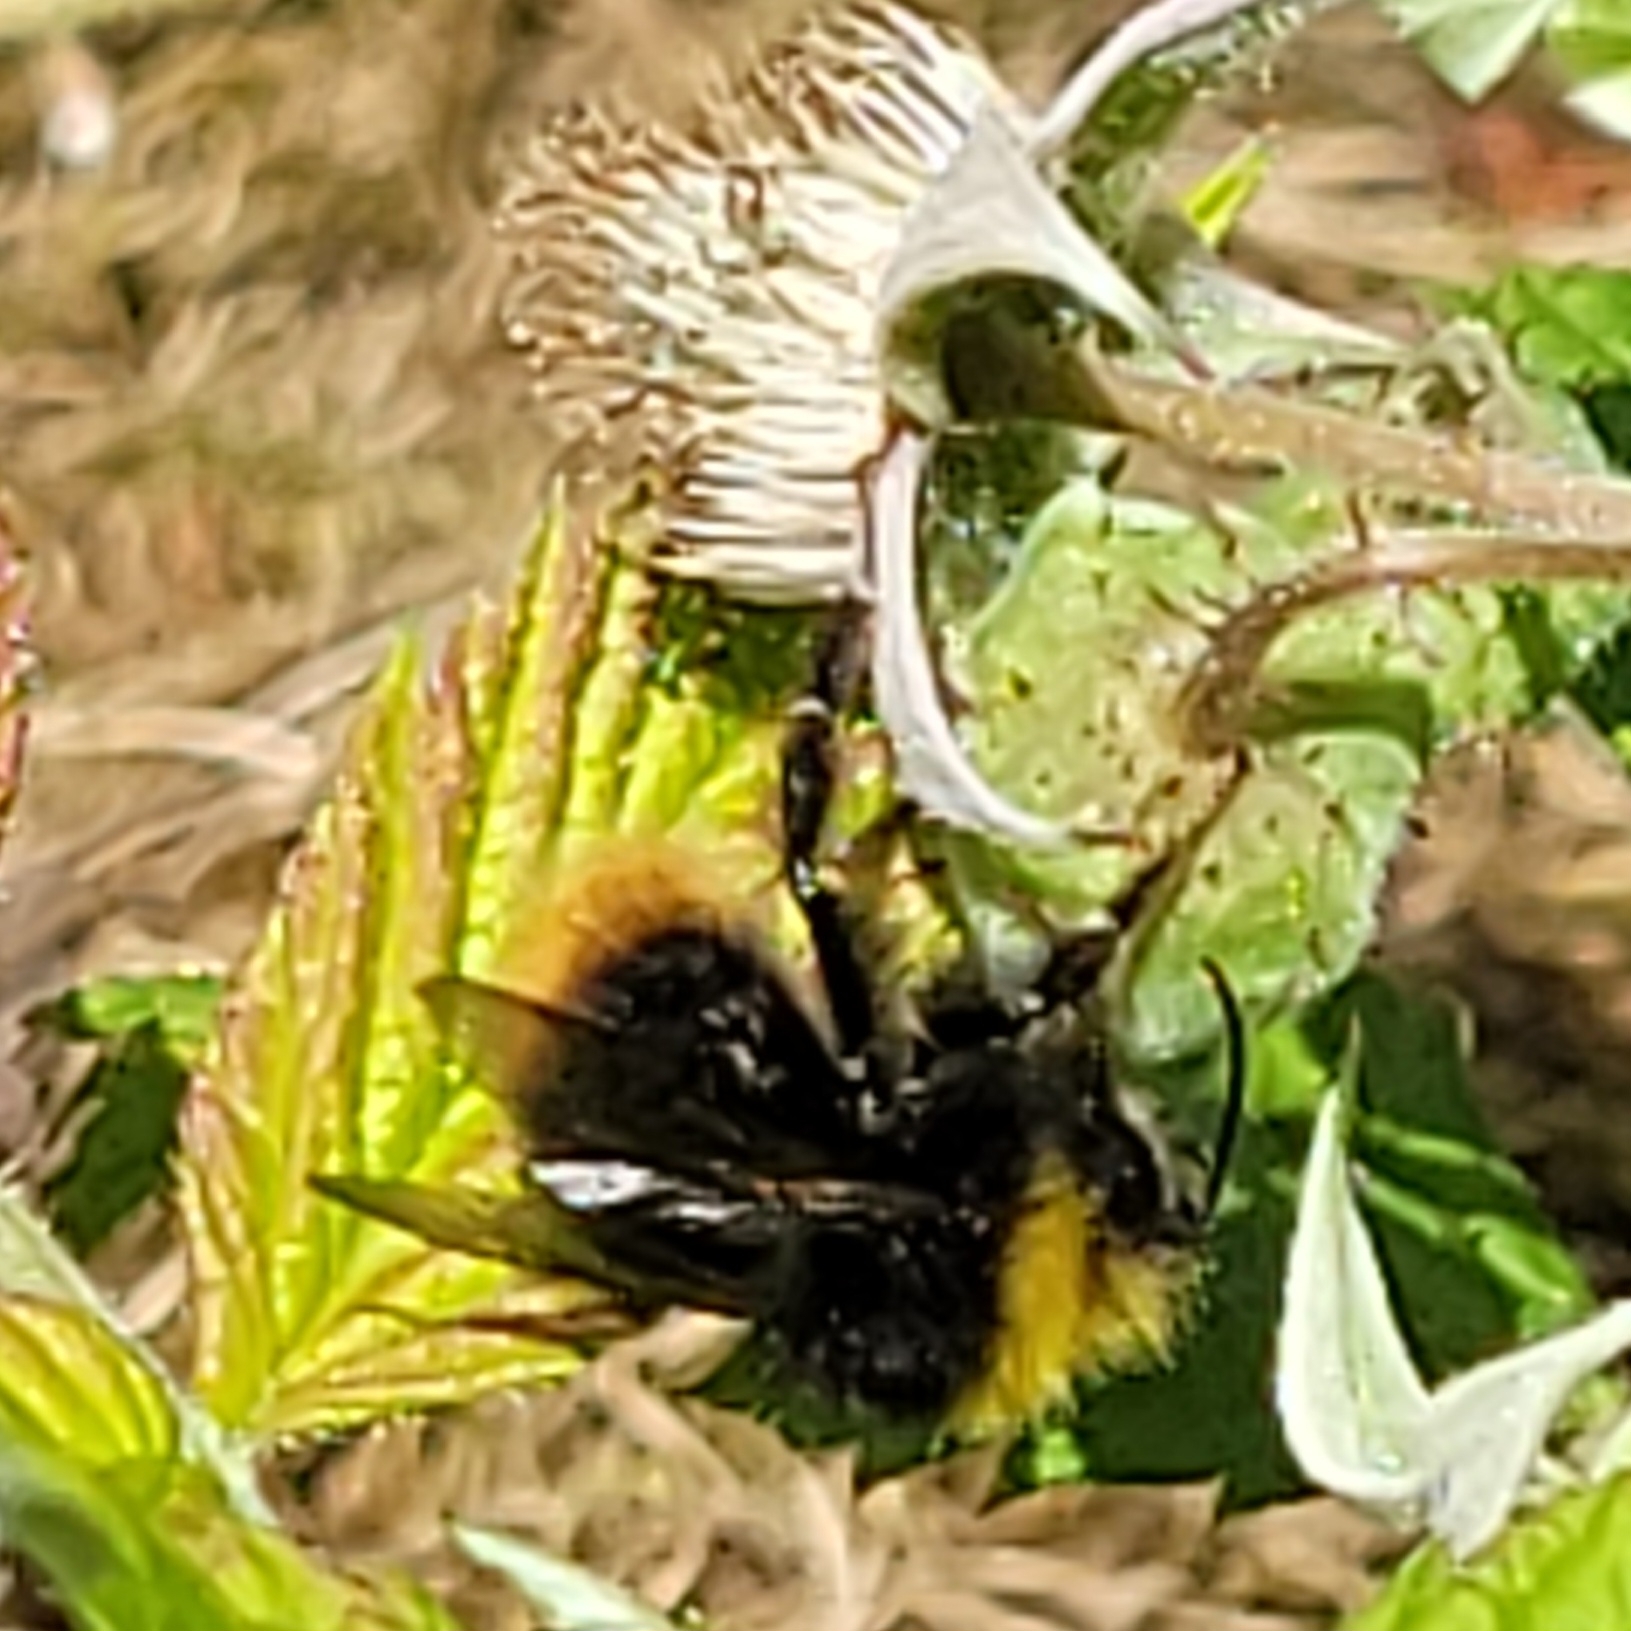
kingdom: Animalia
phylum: Arthropoda
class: Insecta
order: Hymenoptera
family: Apidae
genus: Bombus
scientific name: Bombus pratorum
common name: Early humble-bee
